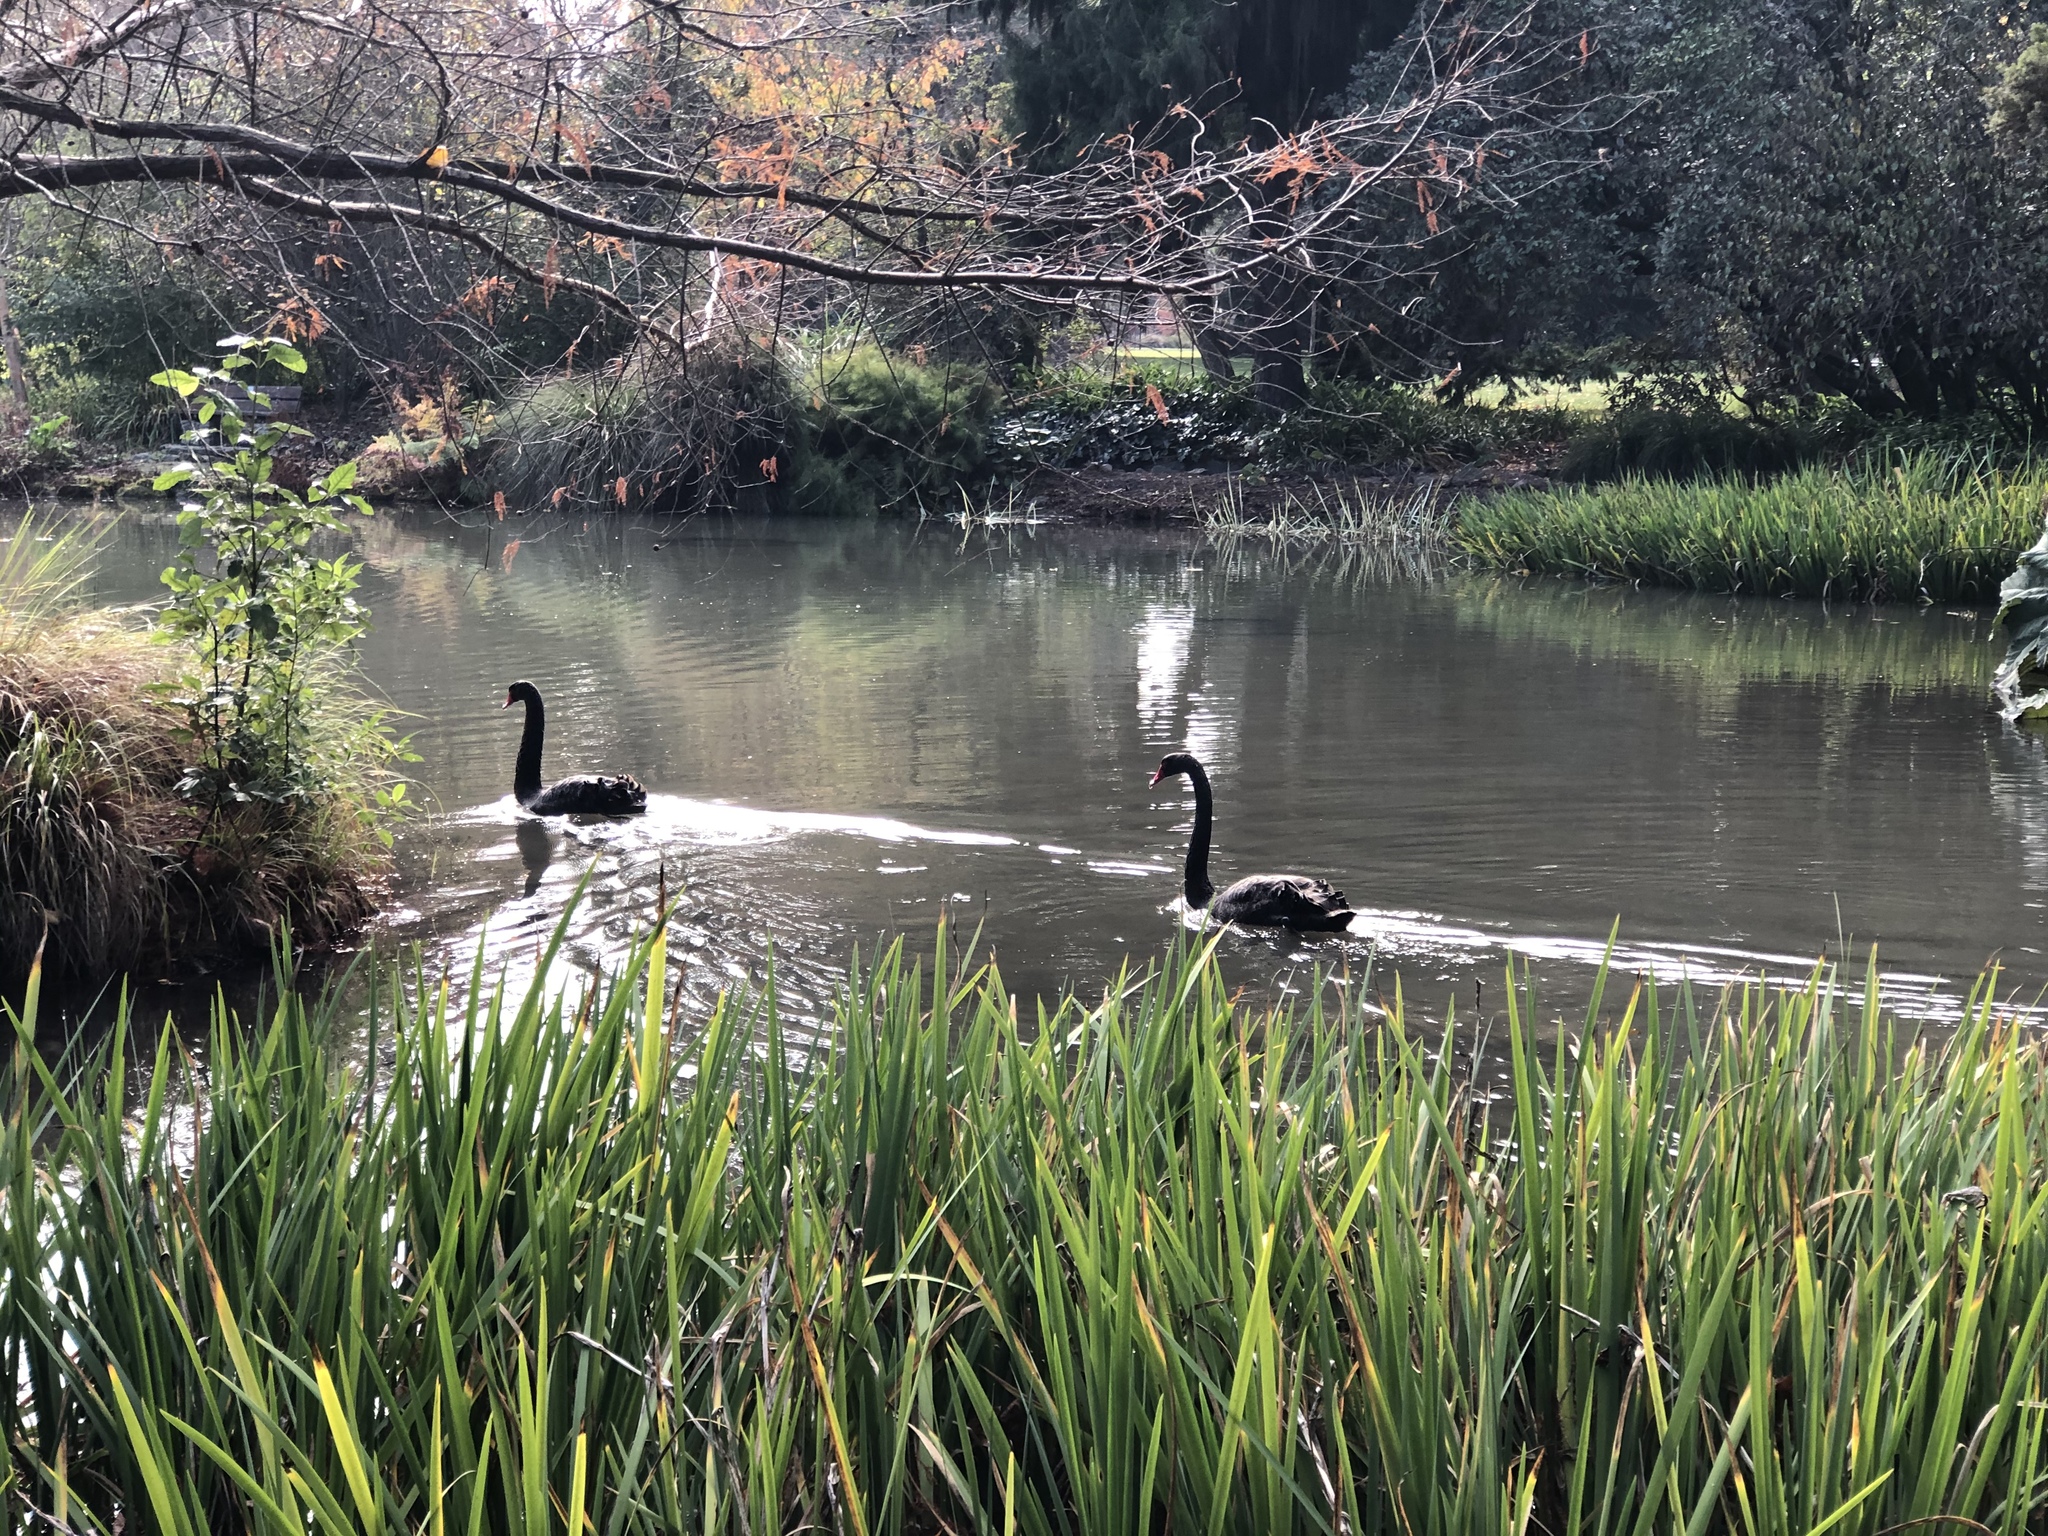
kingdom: Animalia
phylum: Chordata
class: Aves
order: Anseriformes
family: Anatidae
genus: Cygnus
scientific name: Cygnus atratus
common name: Black swan
